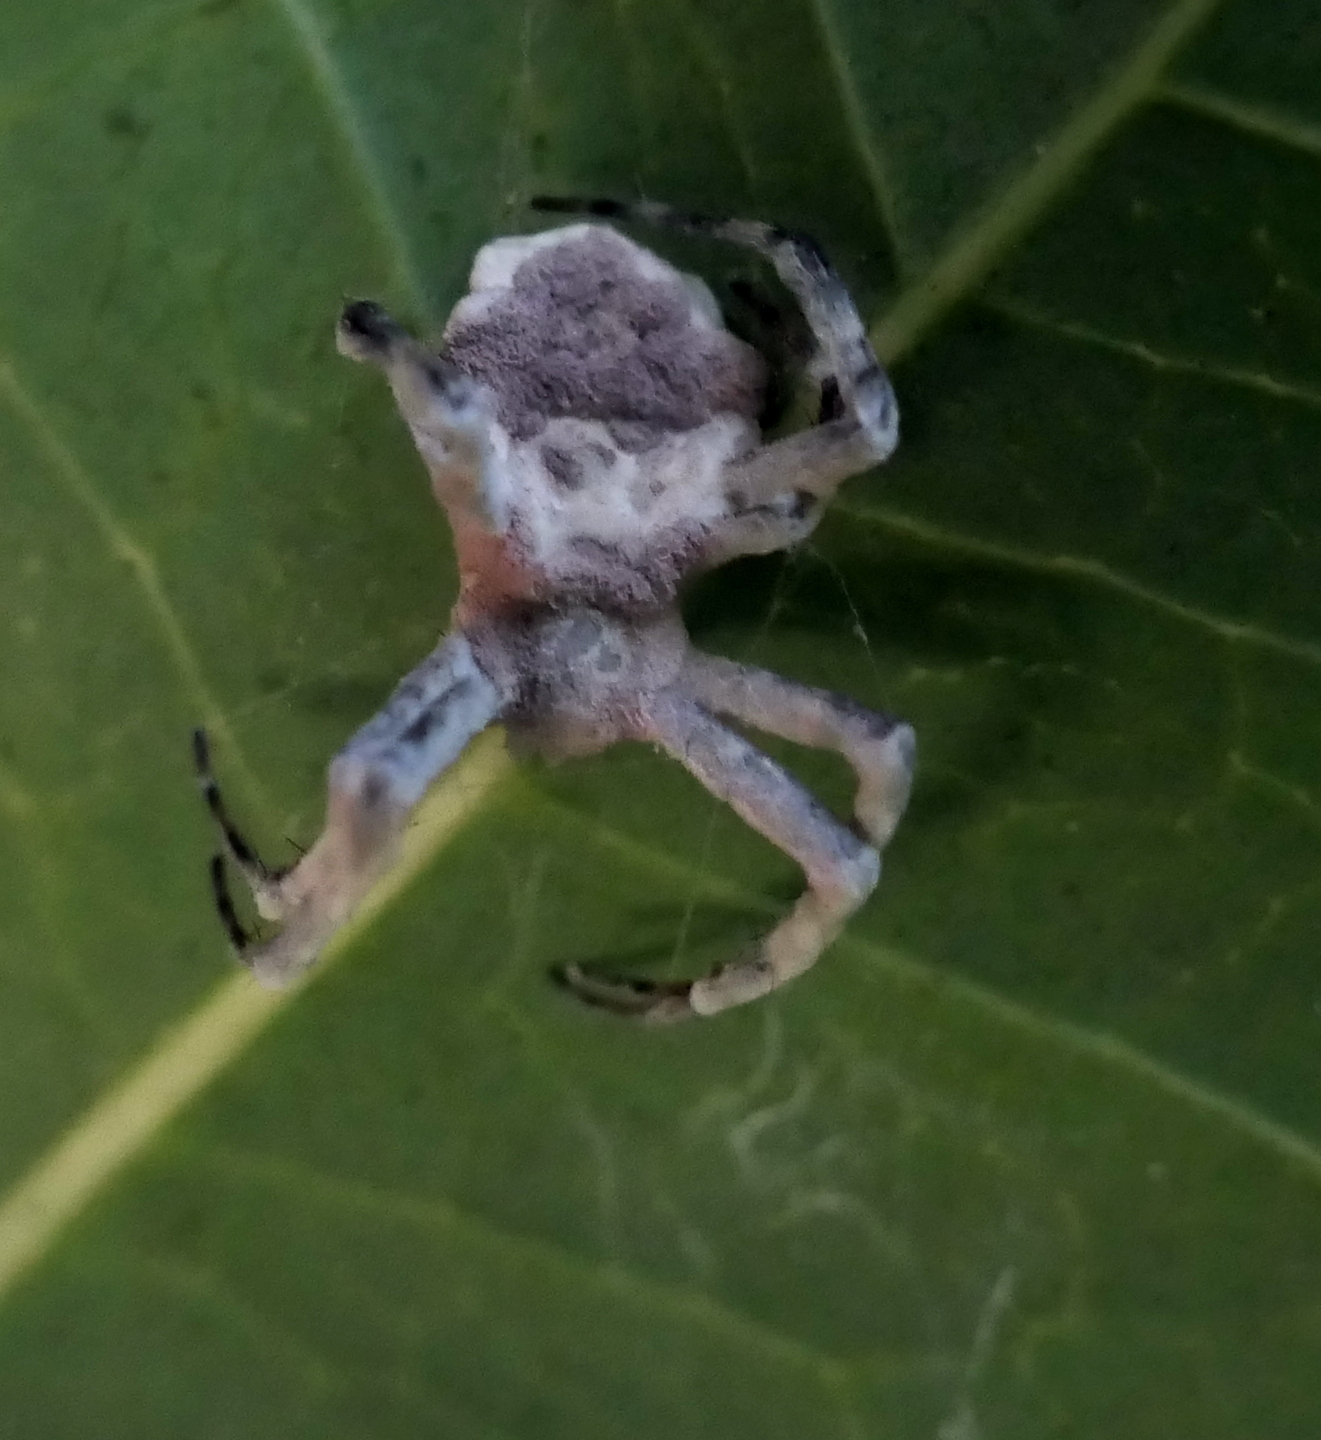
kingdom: Fungi
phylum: Ascomycota
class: Sordariomycetes
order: Hypocreales
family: Ophiocordycipitaceae
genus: Purpureocillium
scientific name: Purpureocillium atypicola
